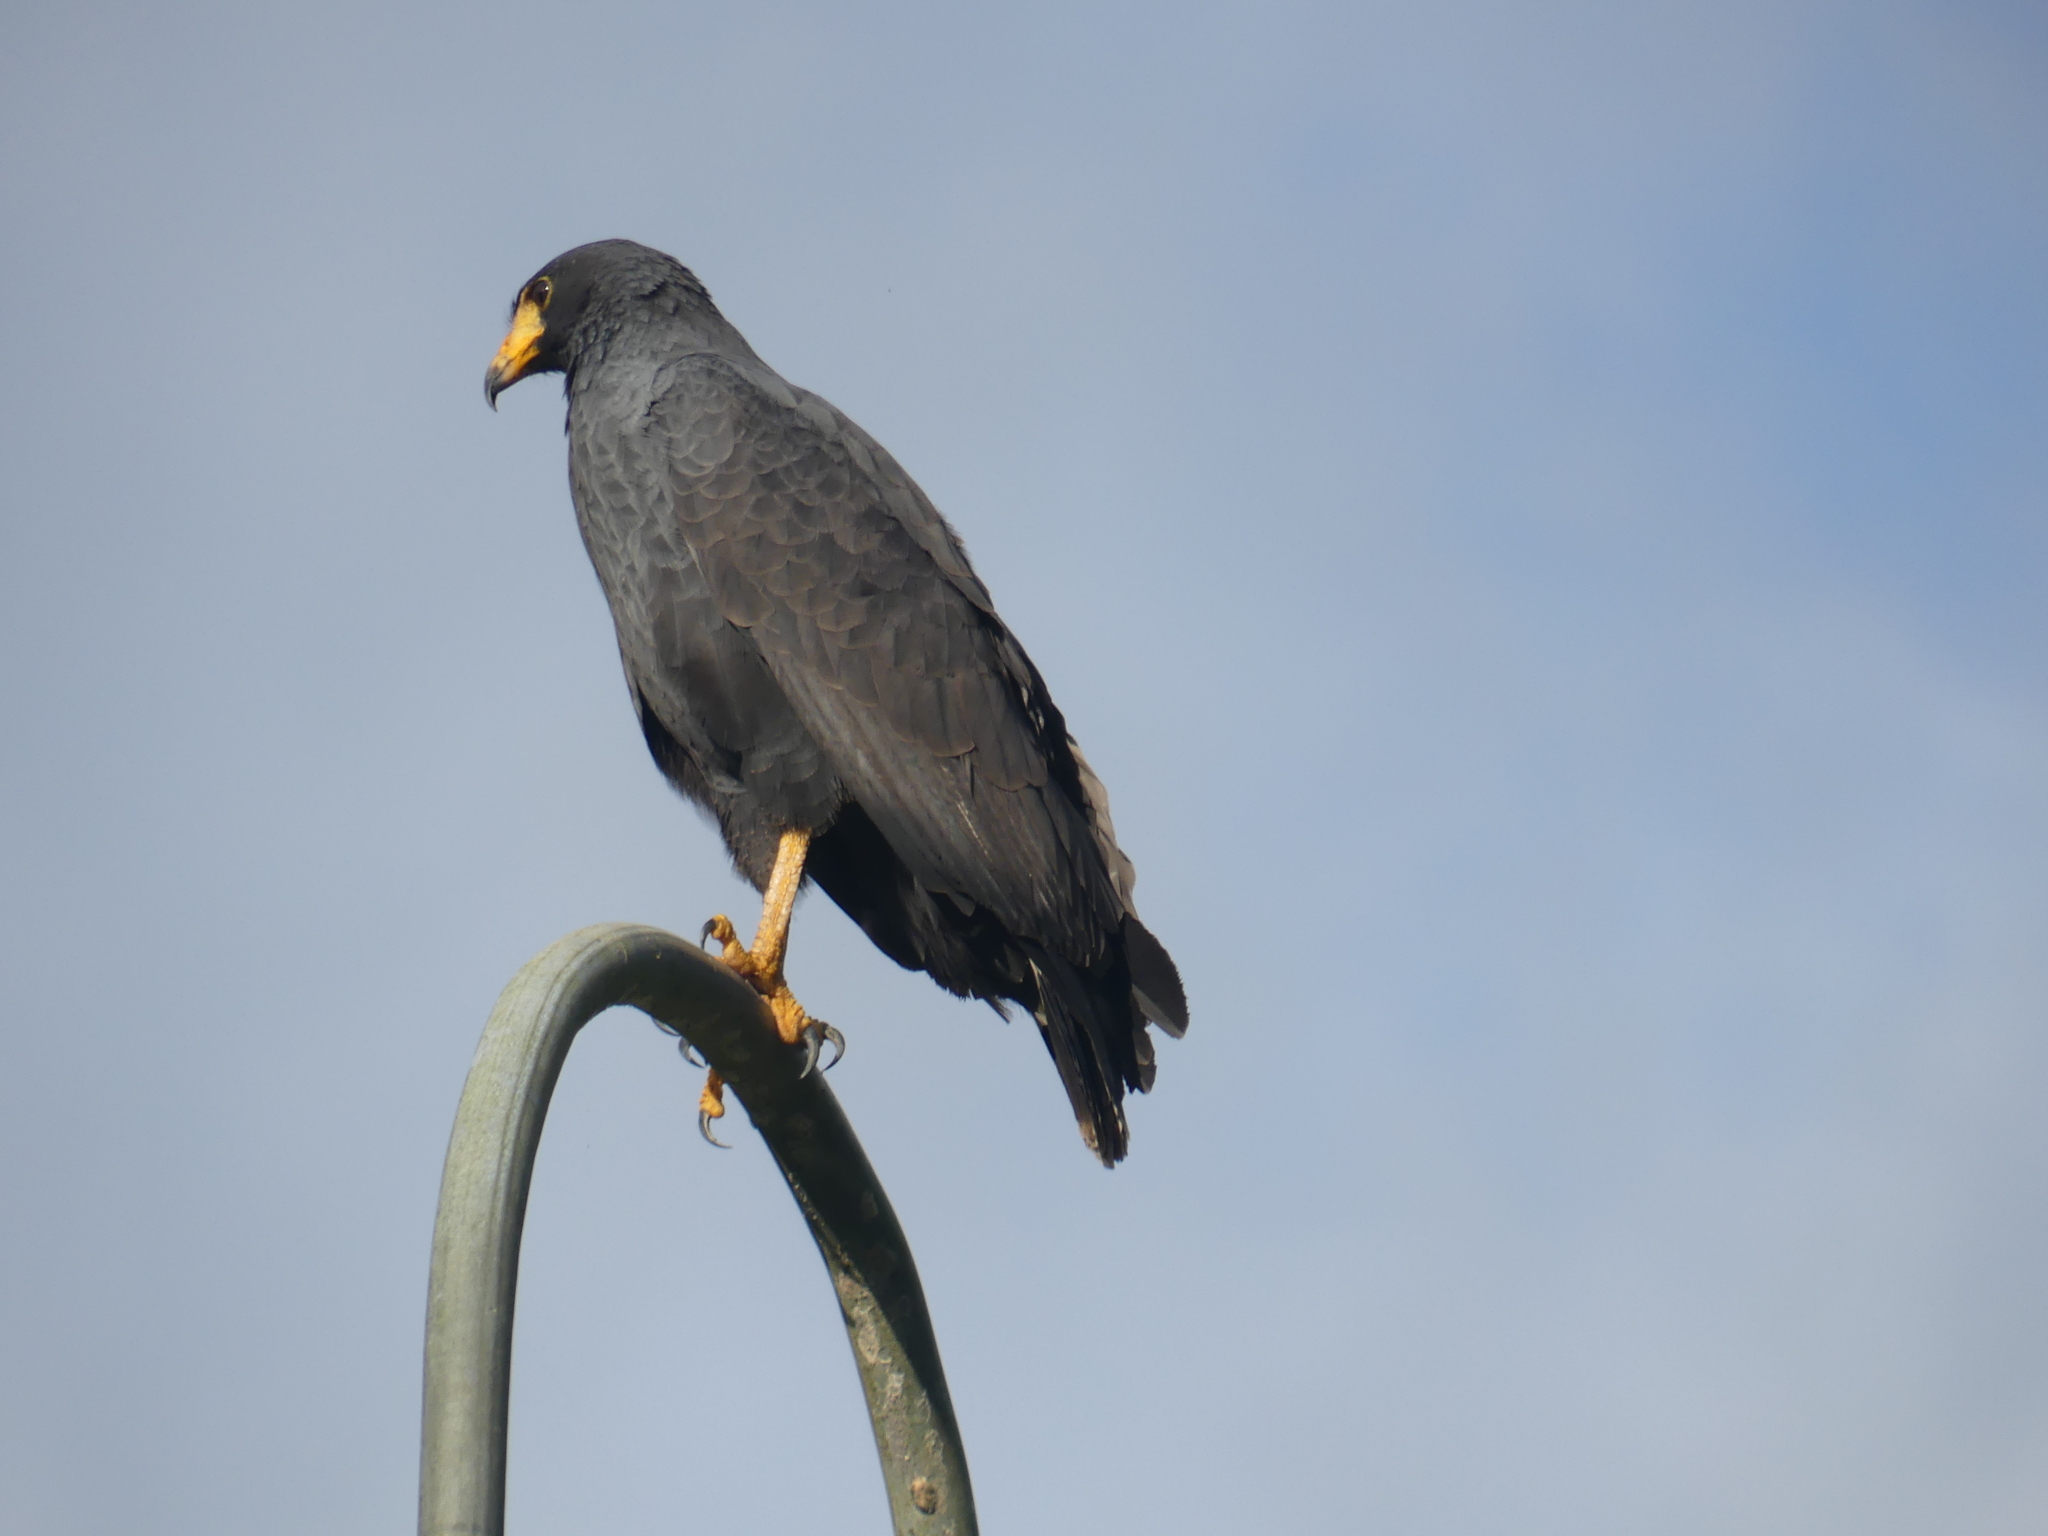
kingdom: Animalia
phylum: Chordata
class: Aves
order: Accipitriformes
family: Accipitridae
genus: Buteogallus
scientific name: Buteogallus anthracinus
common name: Common black hawk
